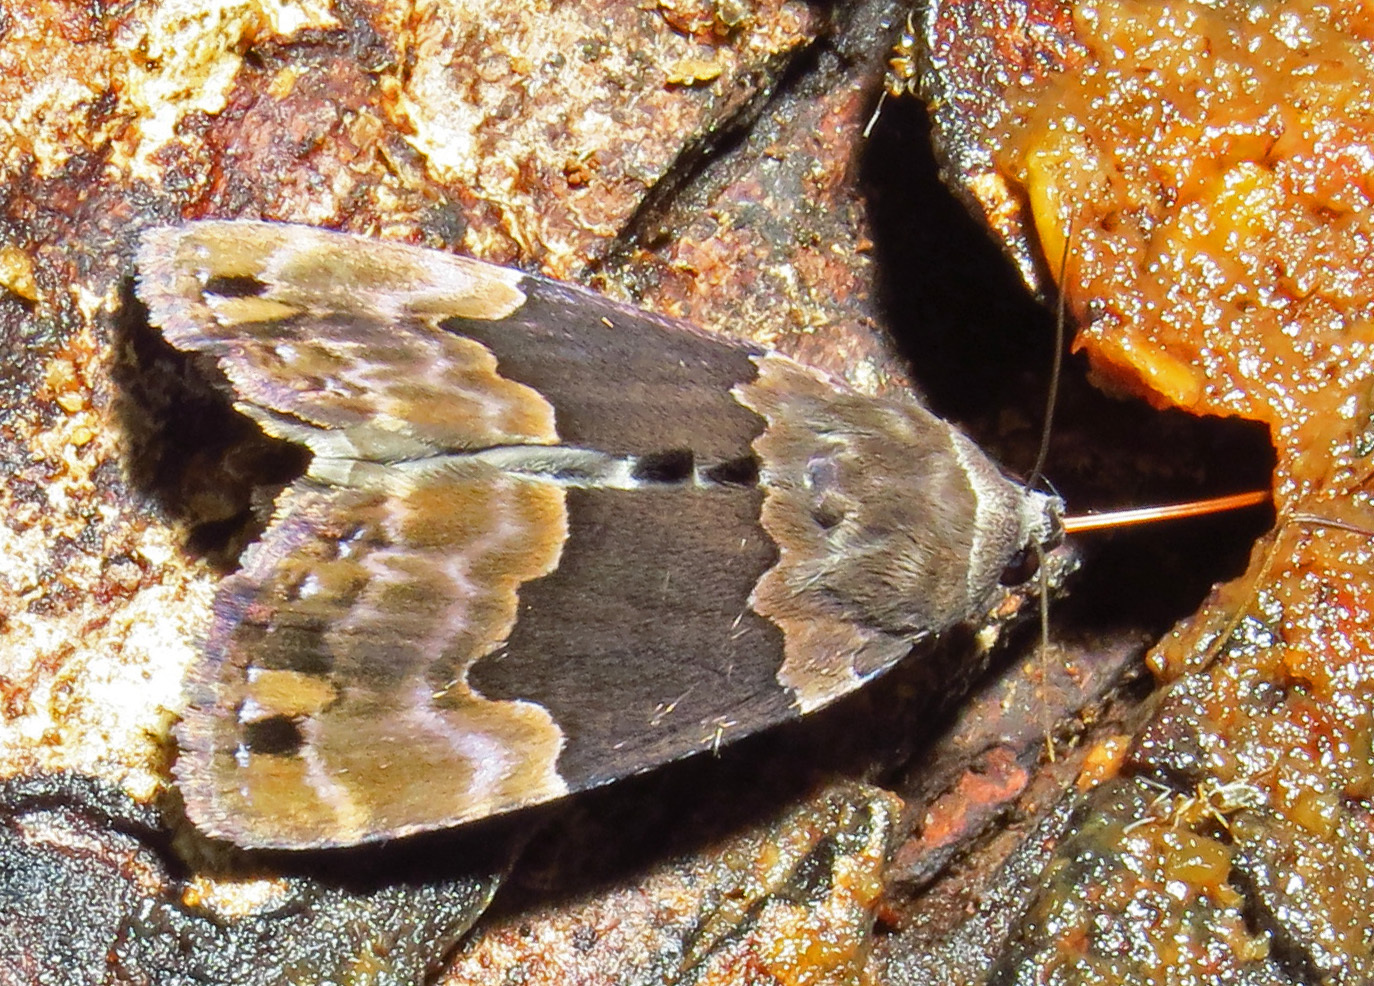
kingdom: Animalia
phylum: Arthropoda
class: Insecta
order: Lepidoptera
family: Erebidae
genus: Dinumma
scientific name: Dinumma deponens
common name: Purplish moth
